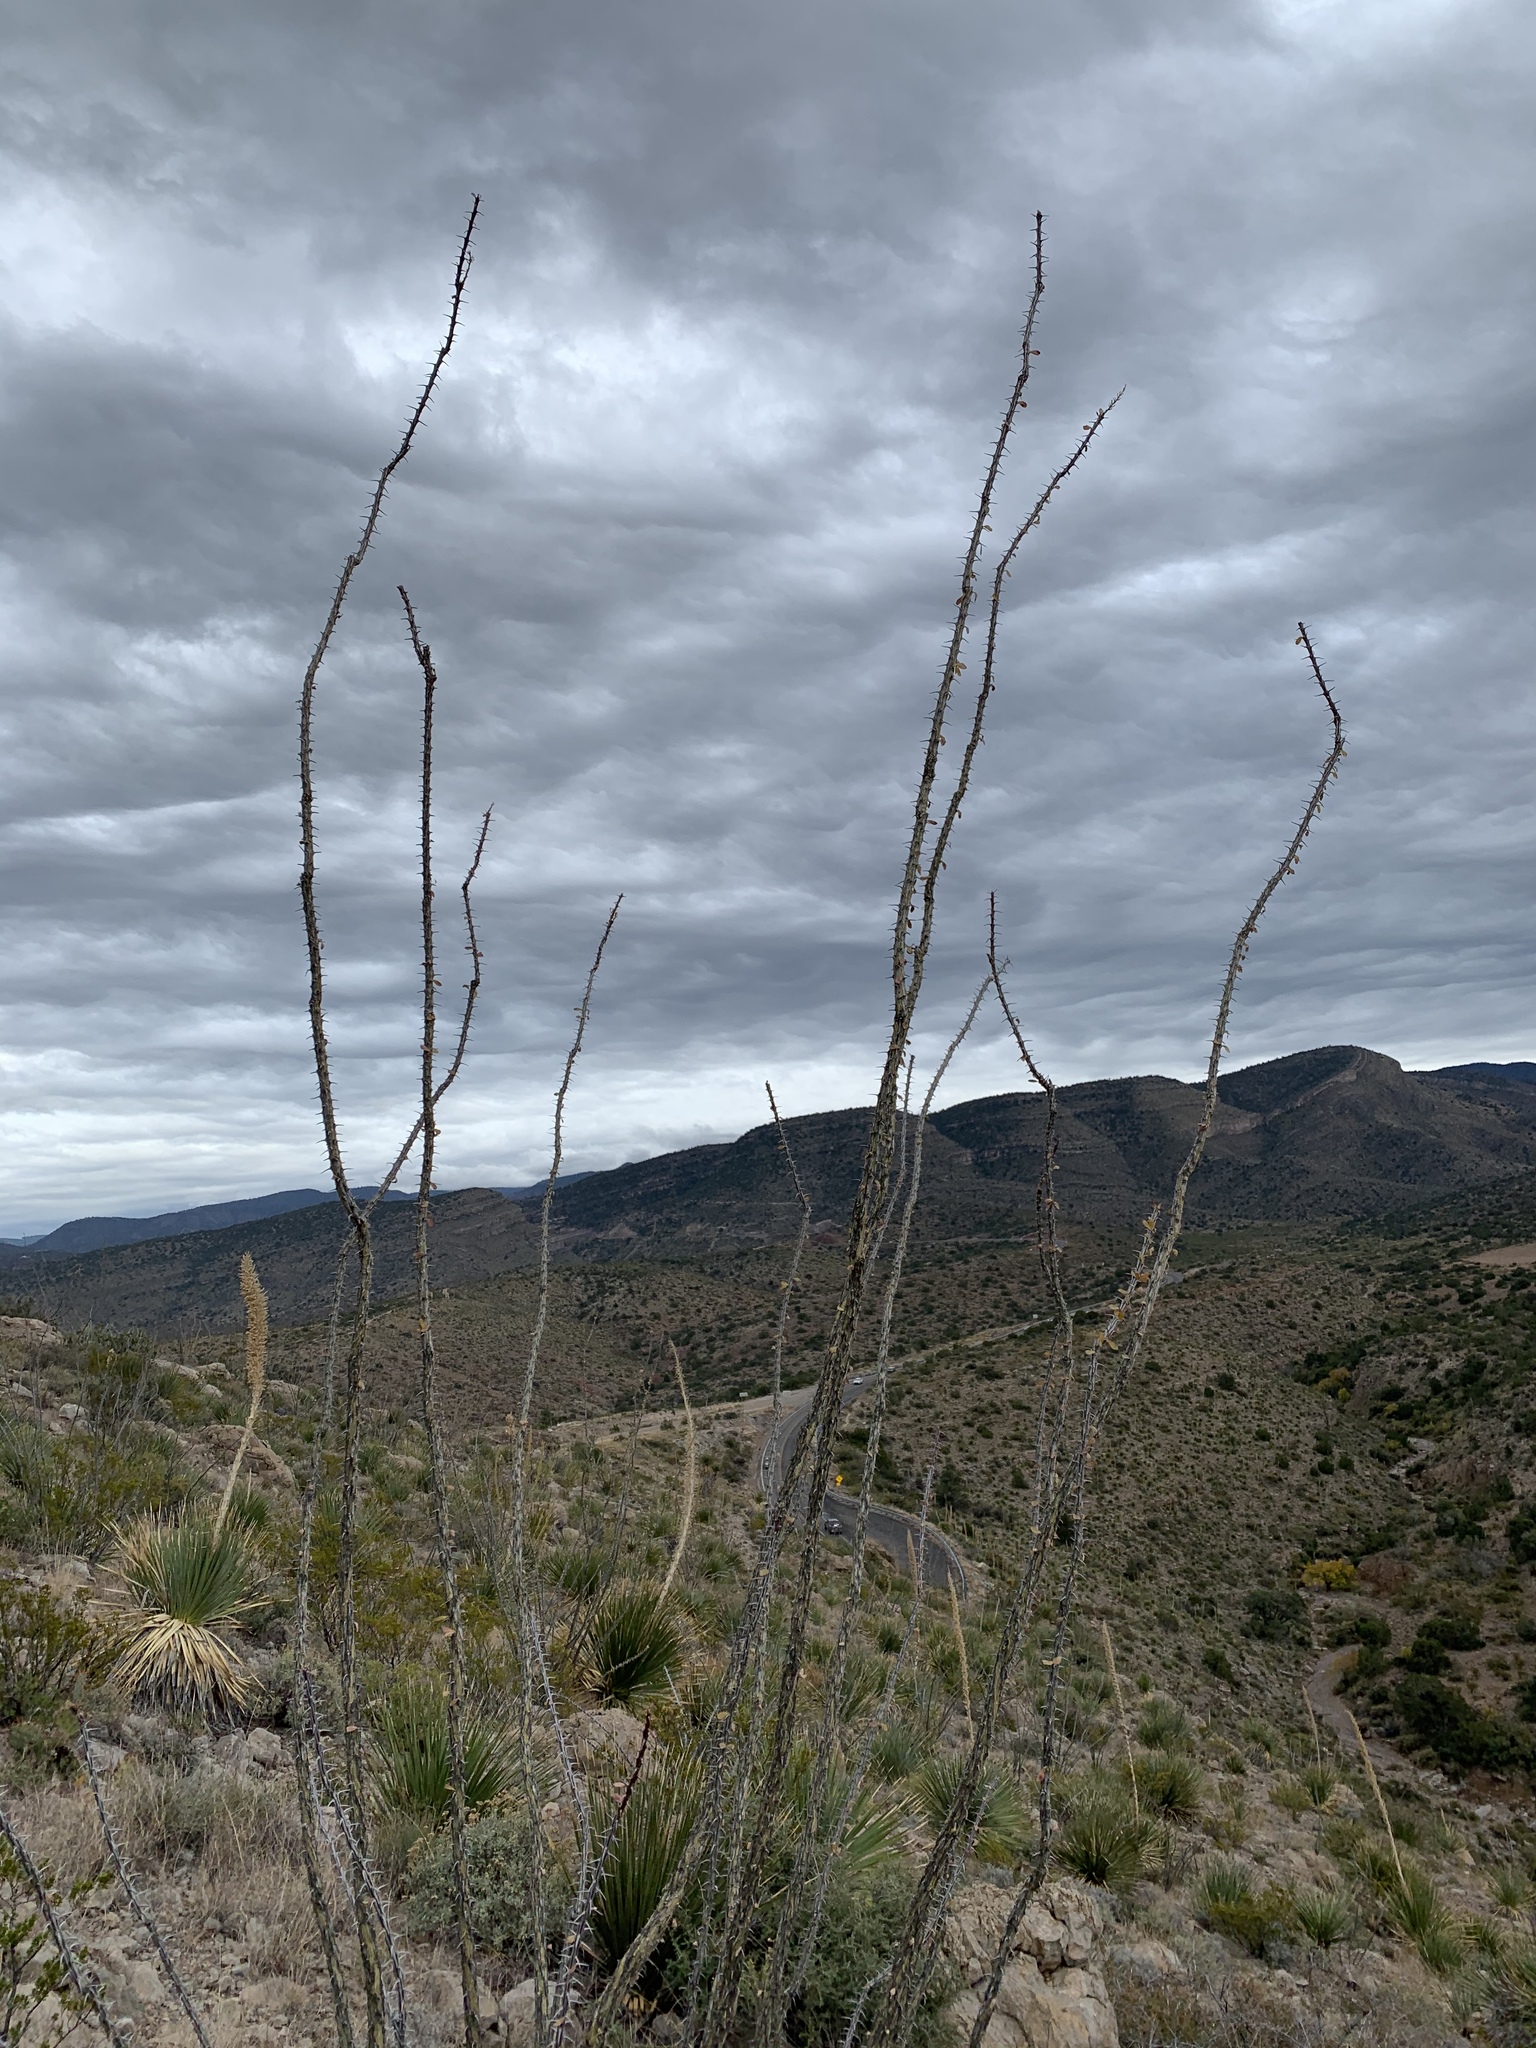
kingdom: Plantae
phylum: Tracheophyta
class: Magnoliopsida
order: Ericales
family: Fouquieriaceae
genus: Fouquieria
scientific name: Fouquieria splendens
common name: Vine-cactus
